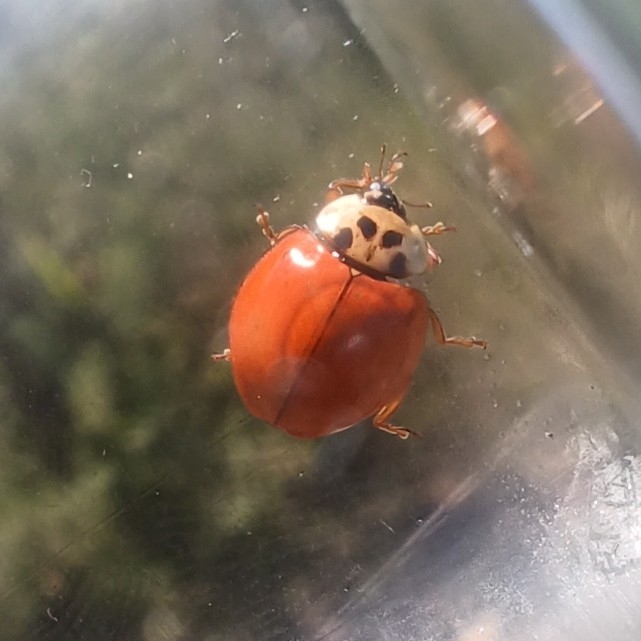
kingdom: Animalia
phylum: Arthropoda
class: Insecta
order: Coleoptera
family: Coccinellidae
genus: Harmonia
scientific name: Harmonia axyridis
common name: Harlequin ladybird
